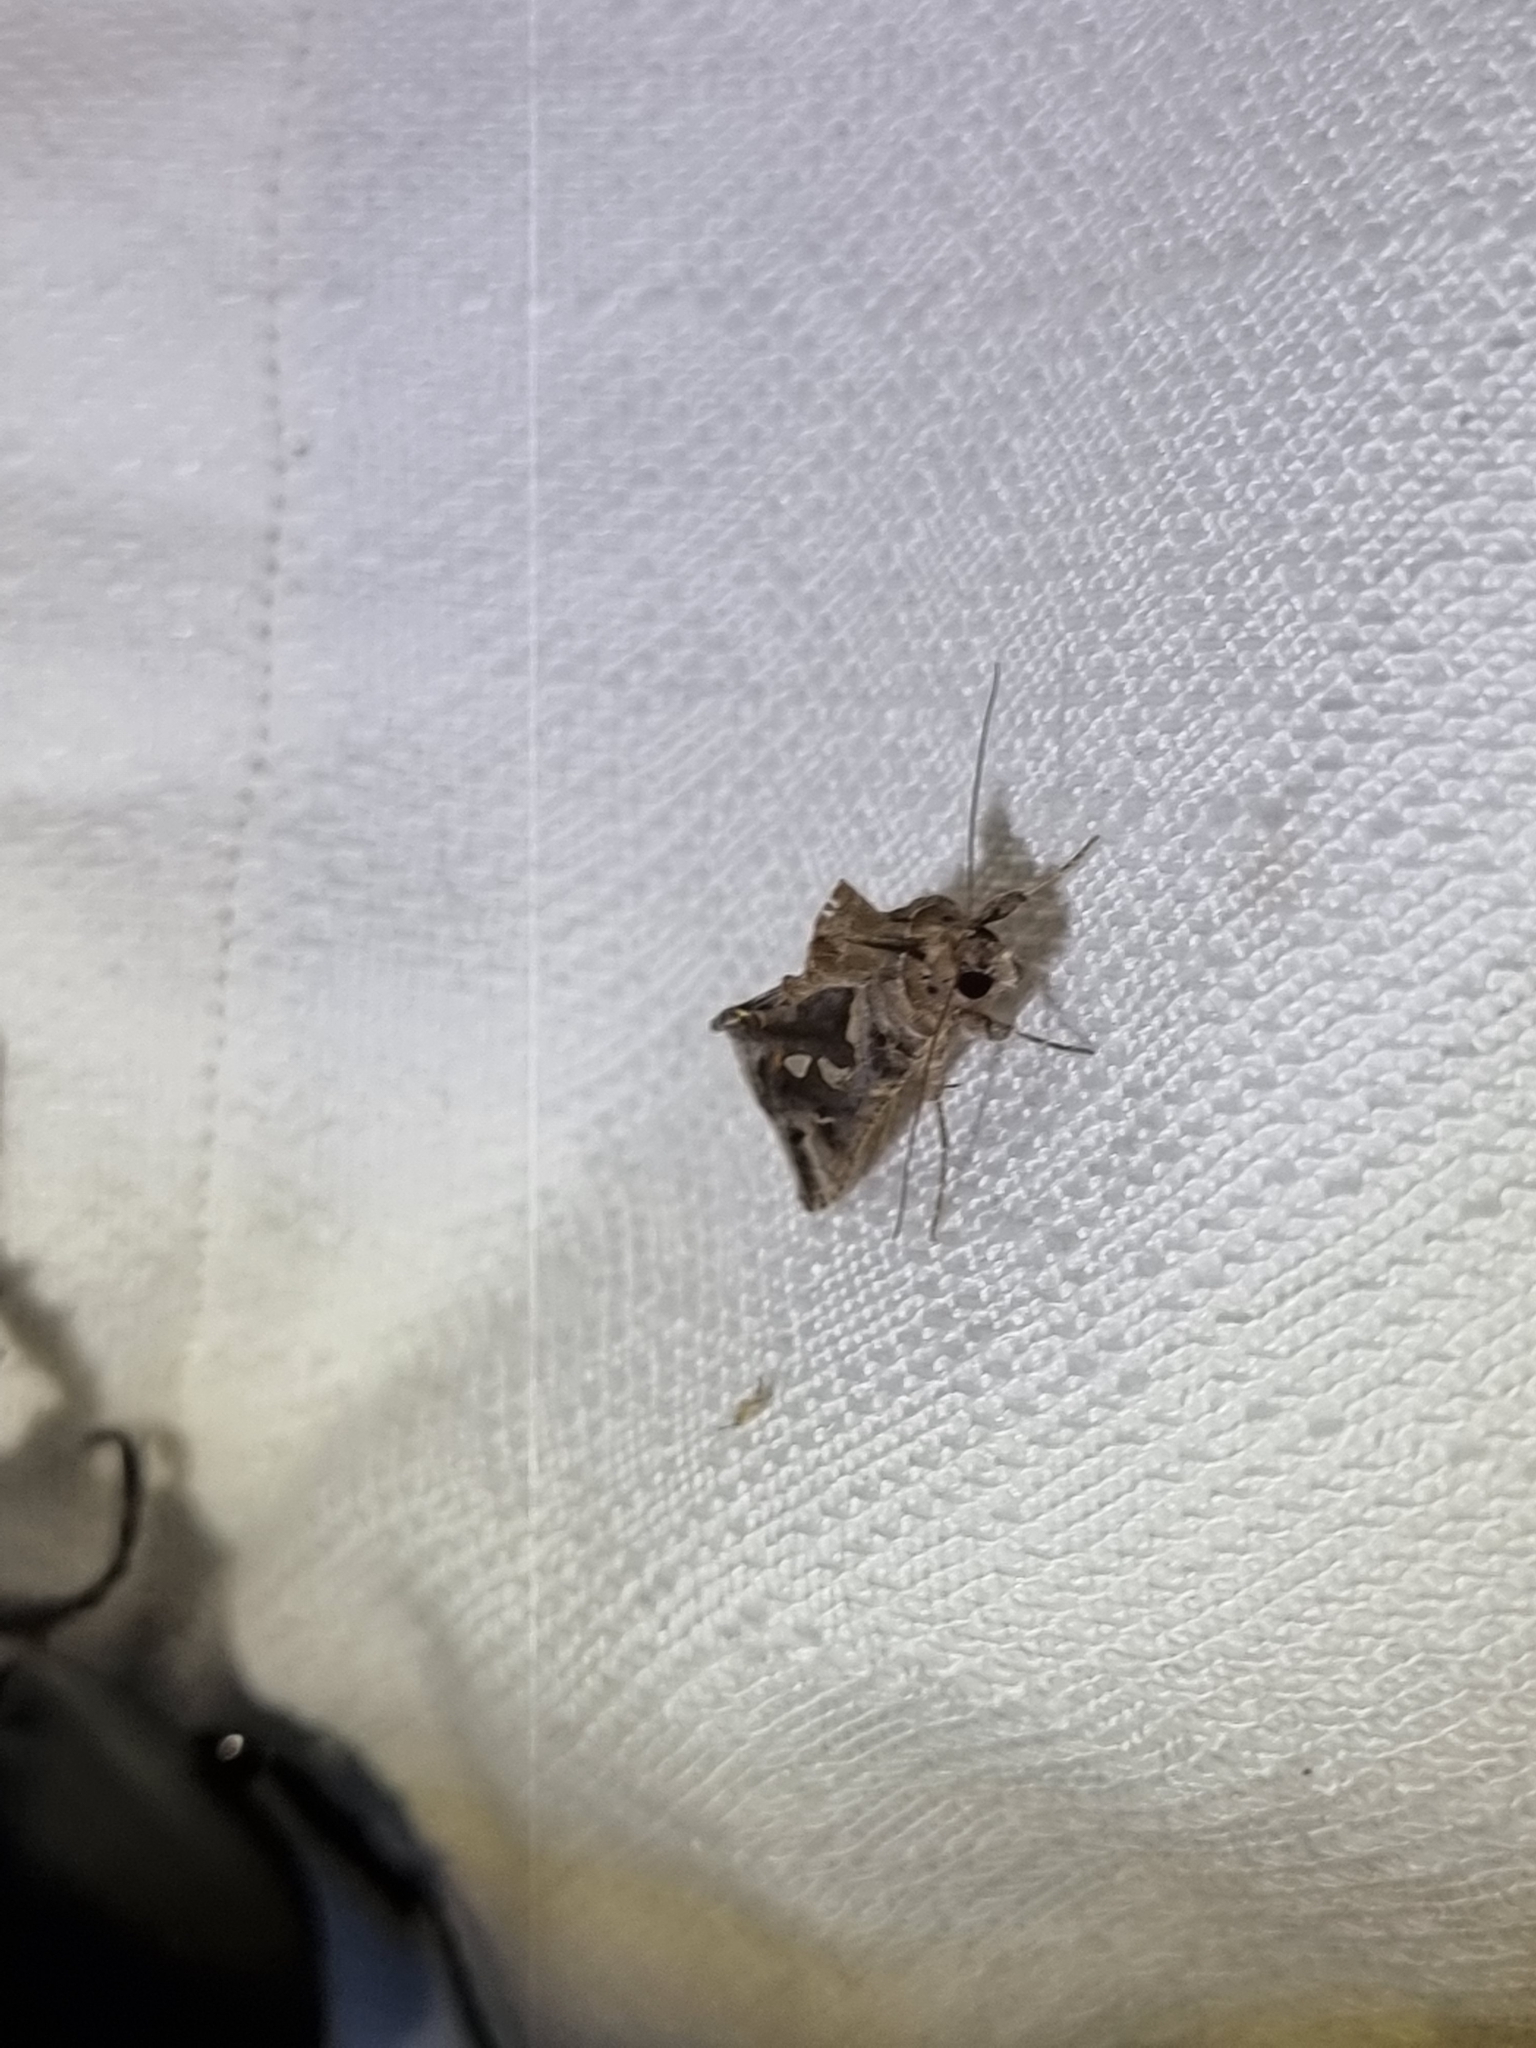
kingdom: Animalia
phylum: Arthropoda
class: Insecta
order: Lepidoptera
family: Noctuidae
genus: Chrysodeixis
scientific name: Chrysodeixis argentifera
